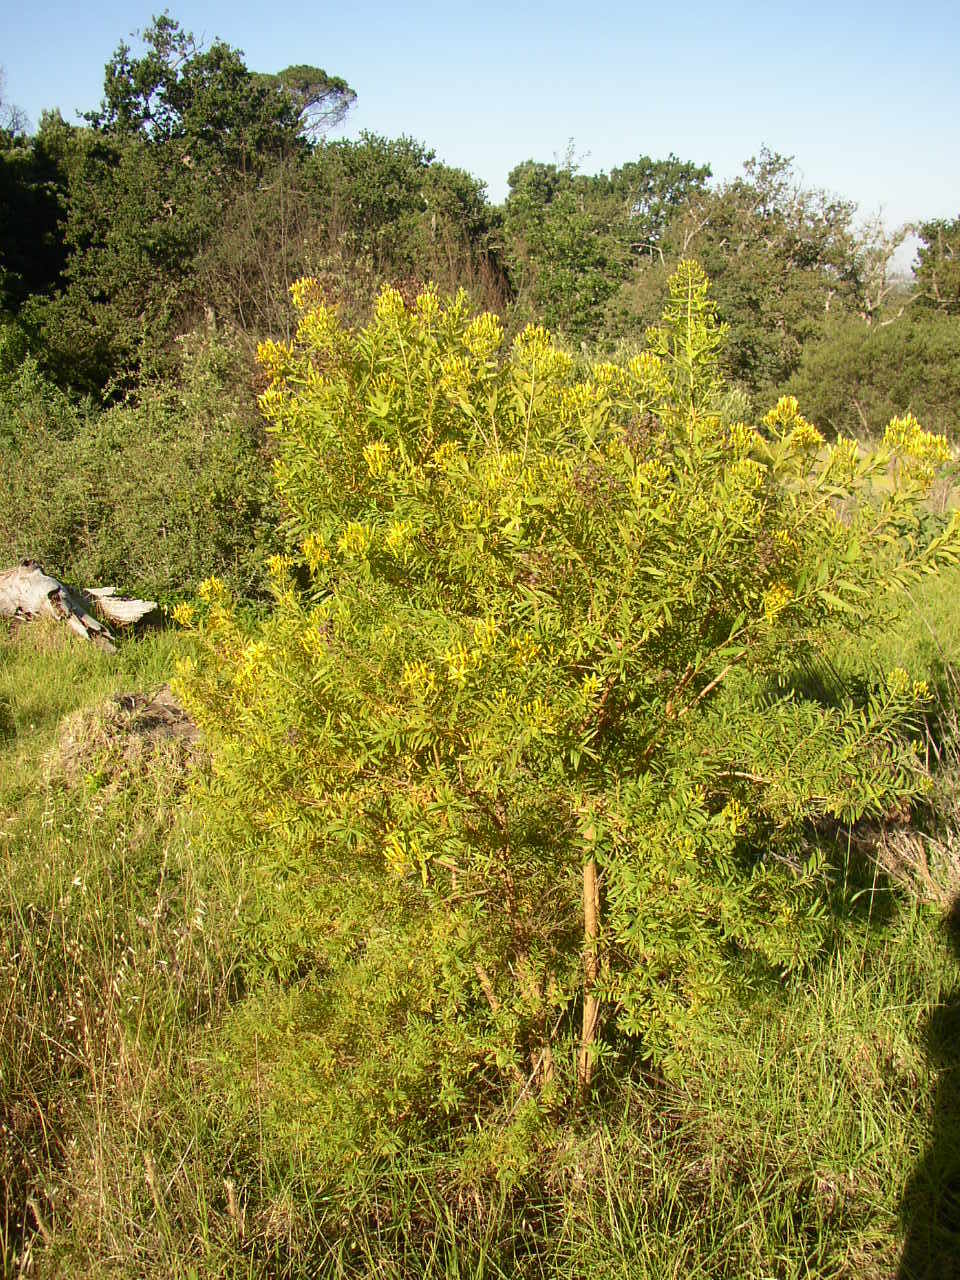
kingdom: Plantae
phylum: Tracheophyta
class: Magnoliopsida
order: Malpighiales
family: Hypericaceae
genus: Hypericum
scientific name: Hypericum canariense
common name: Canary island st. johnswort
